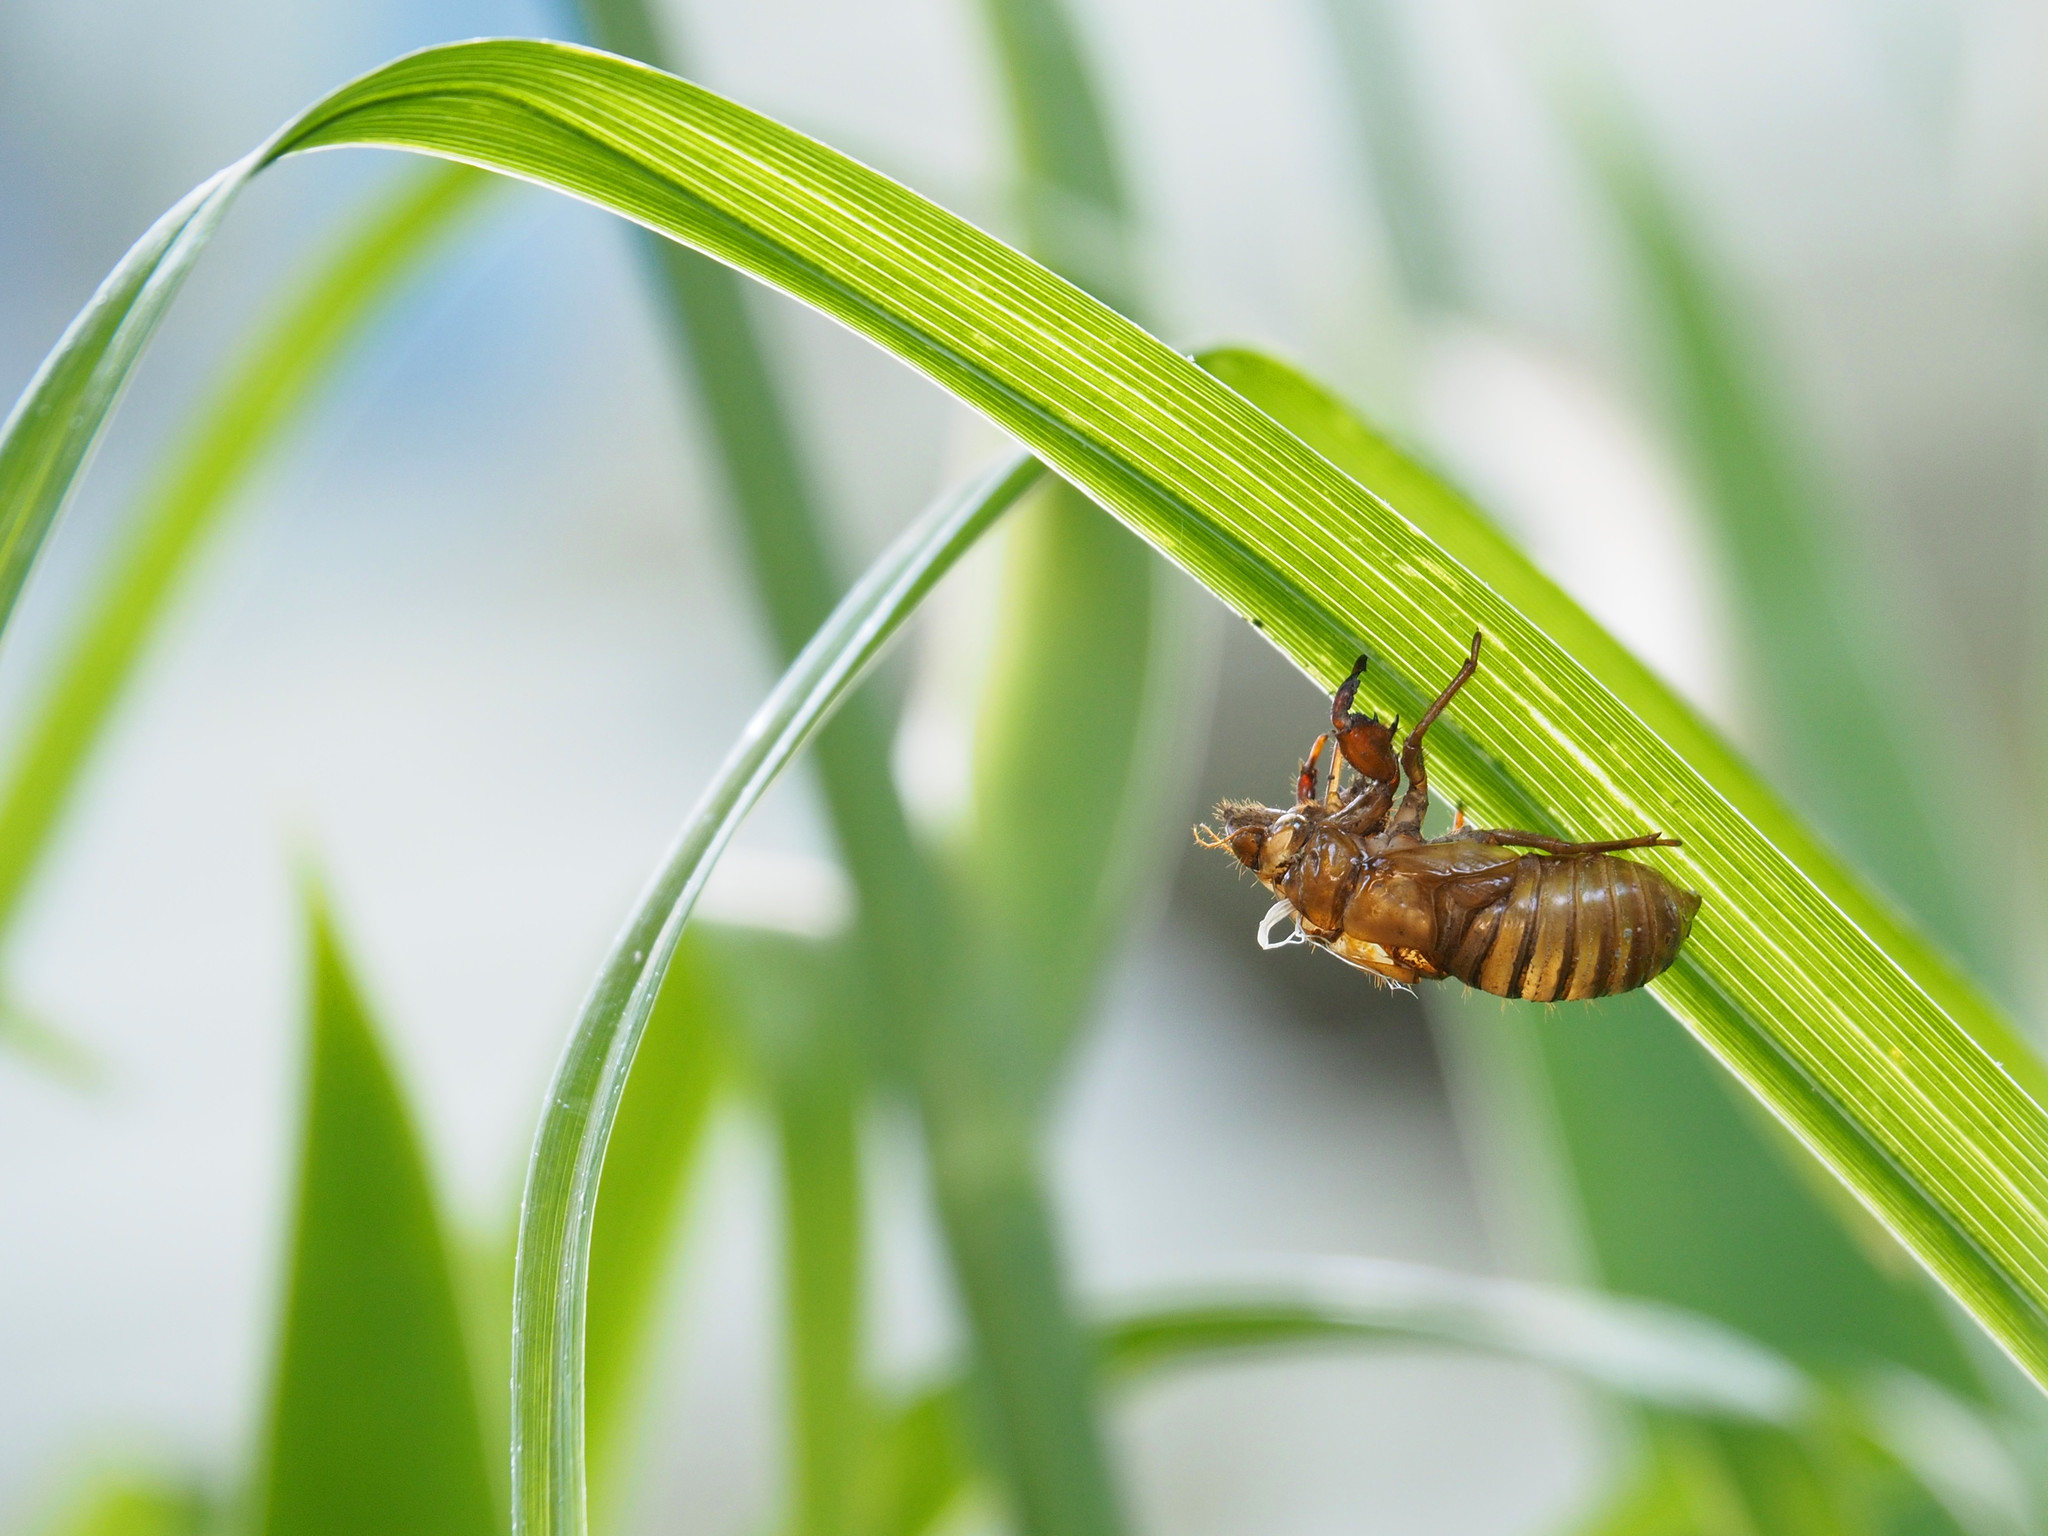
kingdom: Animalia
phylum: Arthropoda
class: Insecta
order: Hemiptera
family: Cicadidae
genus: Magicicada
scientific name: Magicicada
